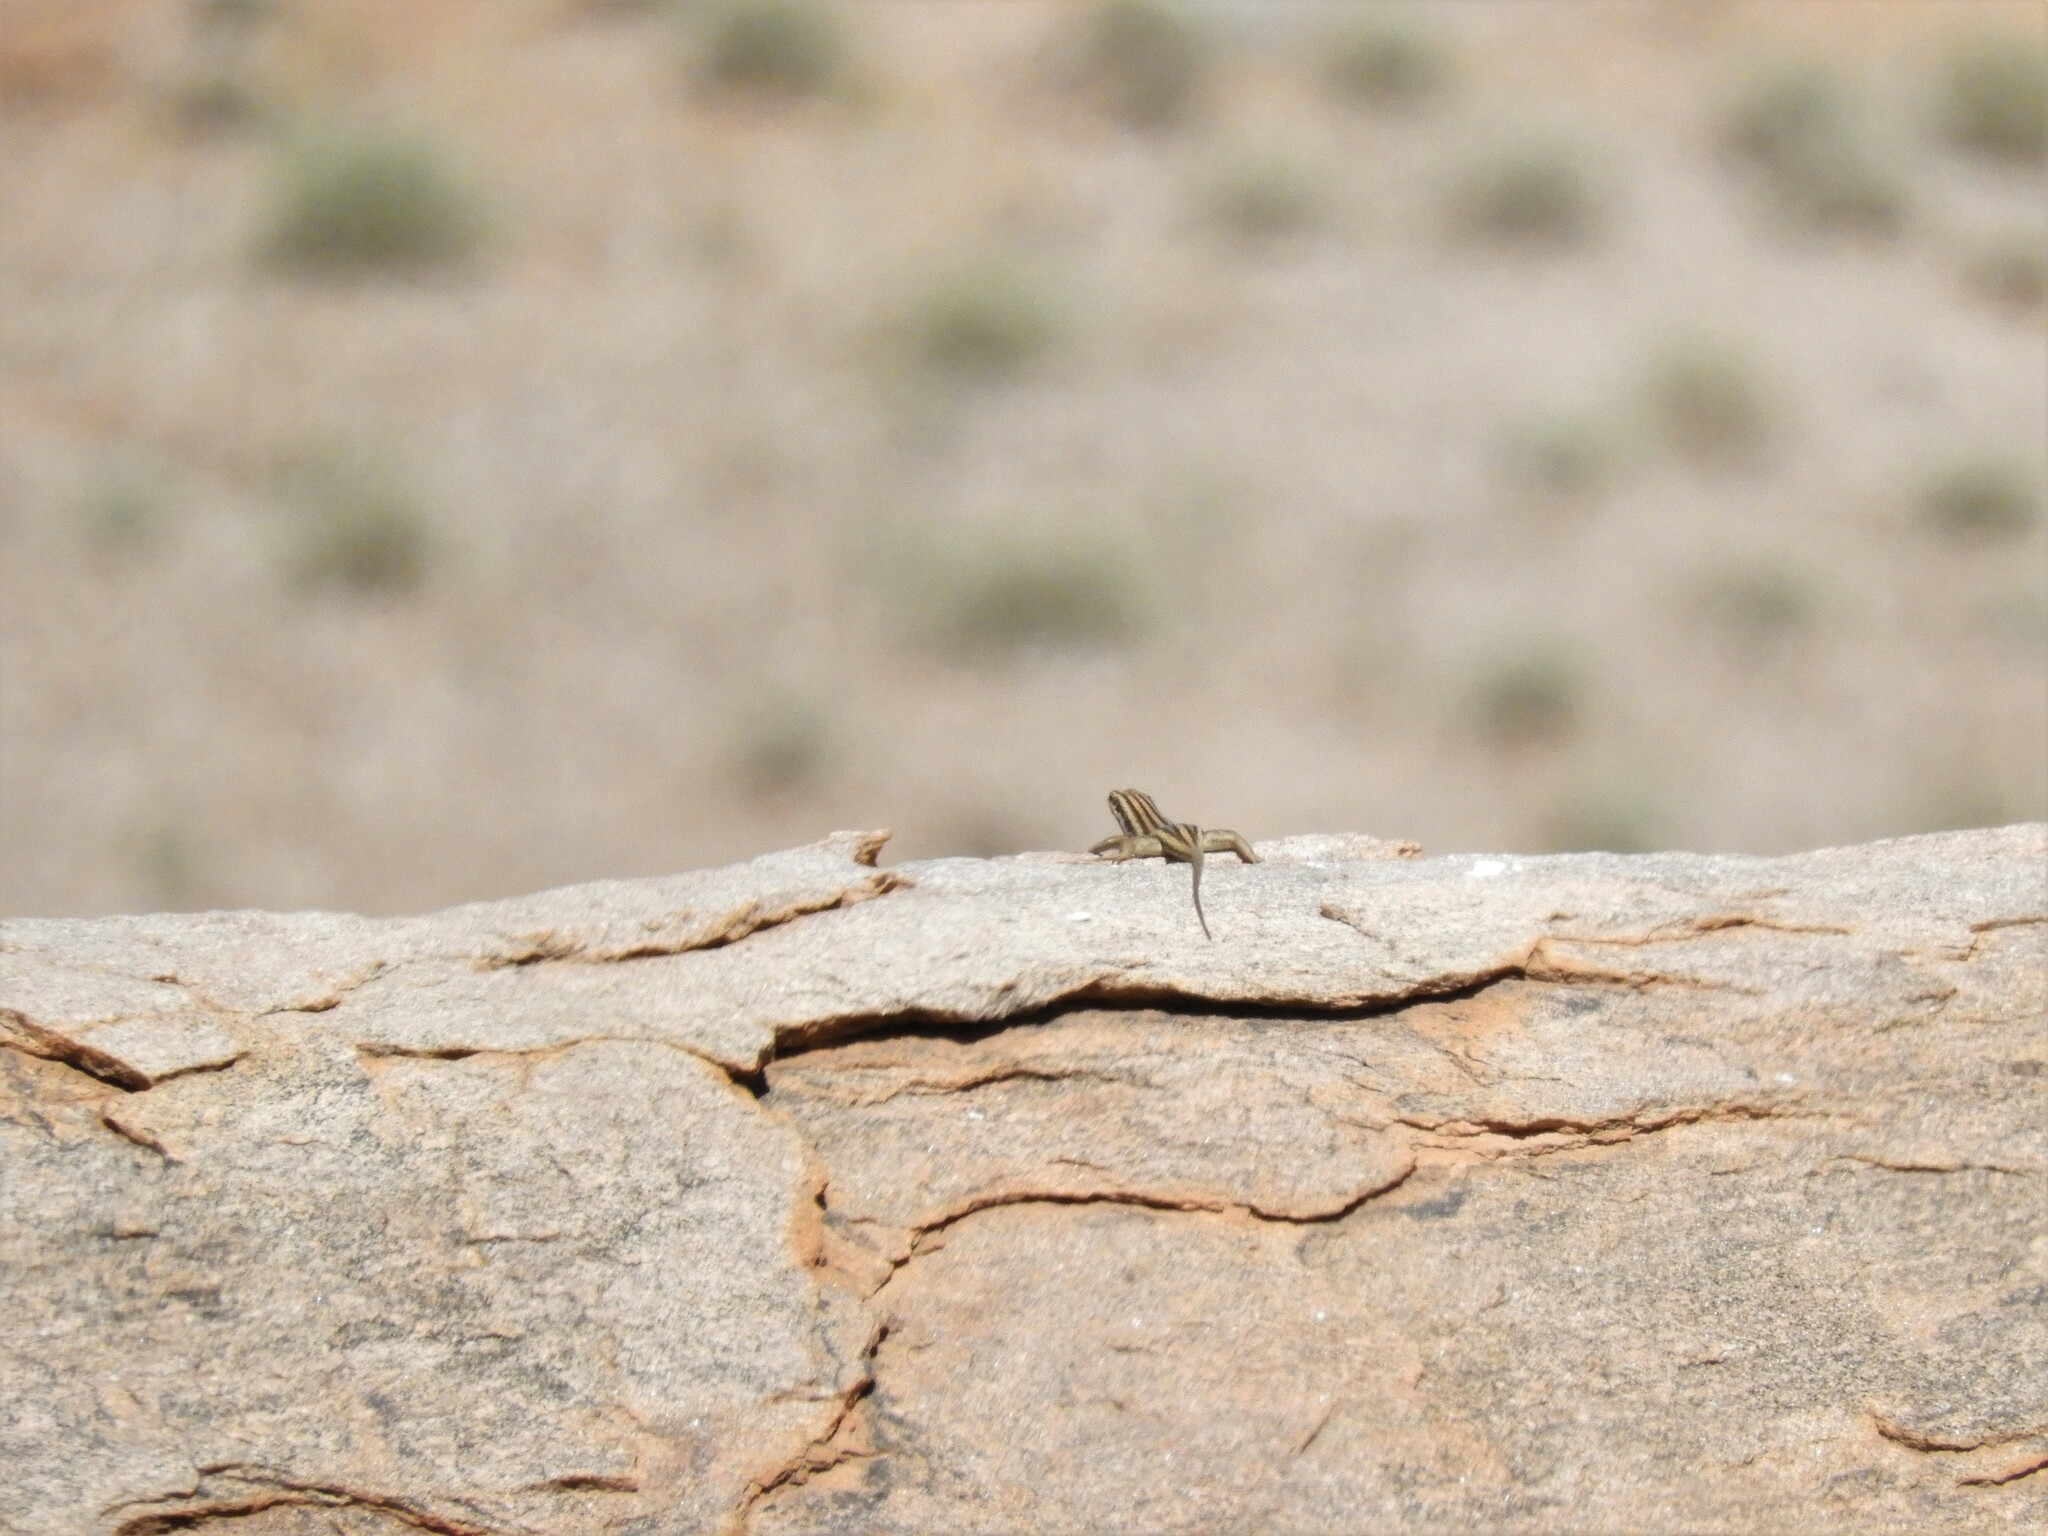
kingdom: Animalia
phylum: Chordata
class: Squamata
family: Scincidae
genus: Trachylepis
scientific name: Trachylepis sulcata
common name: Western rock skink
